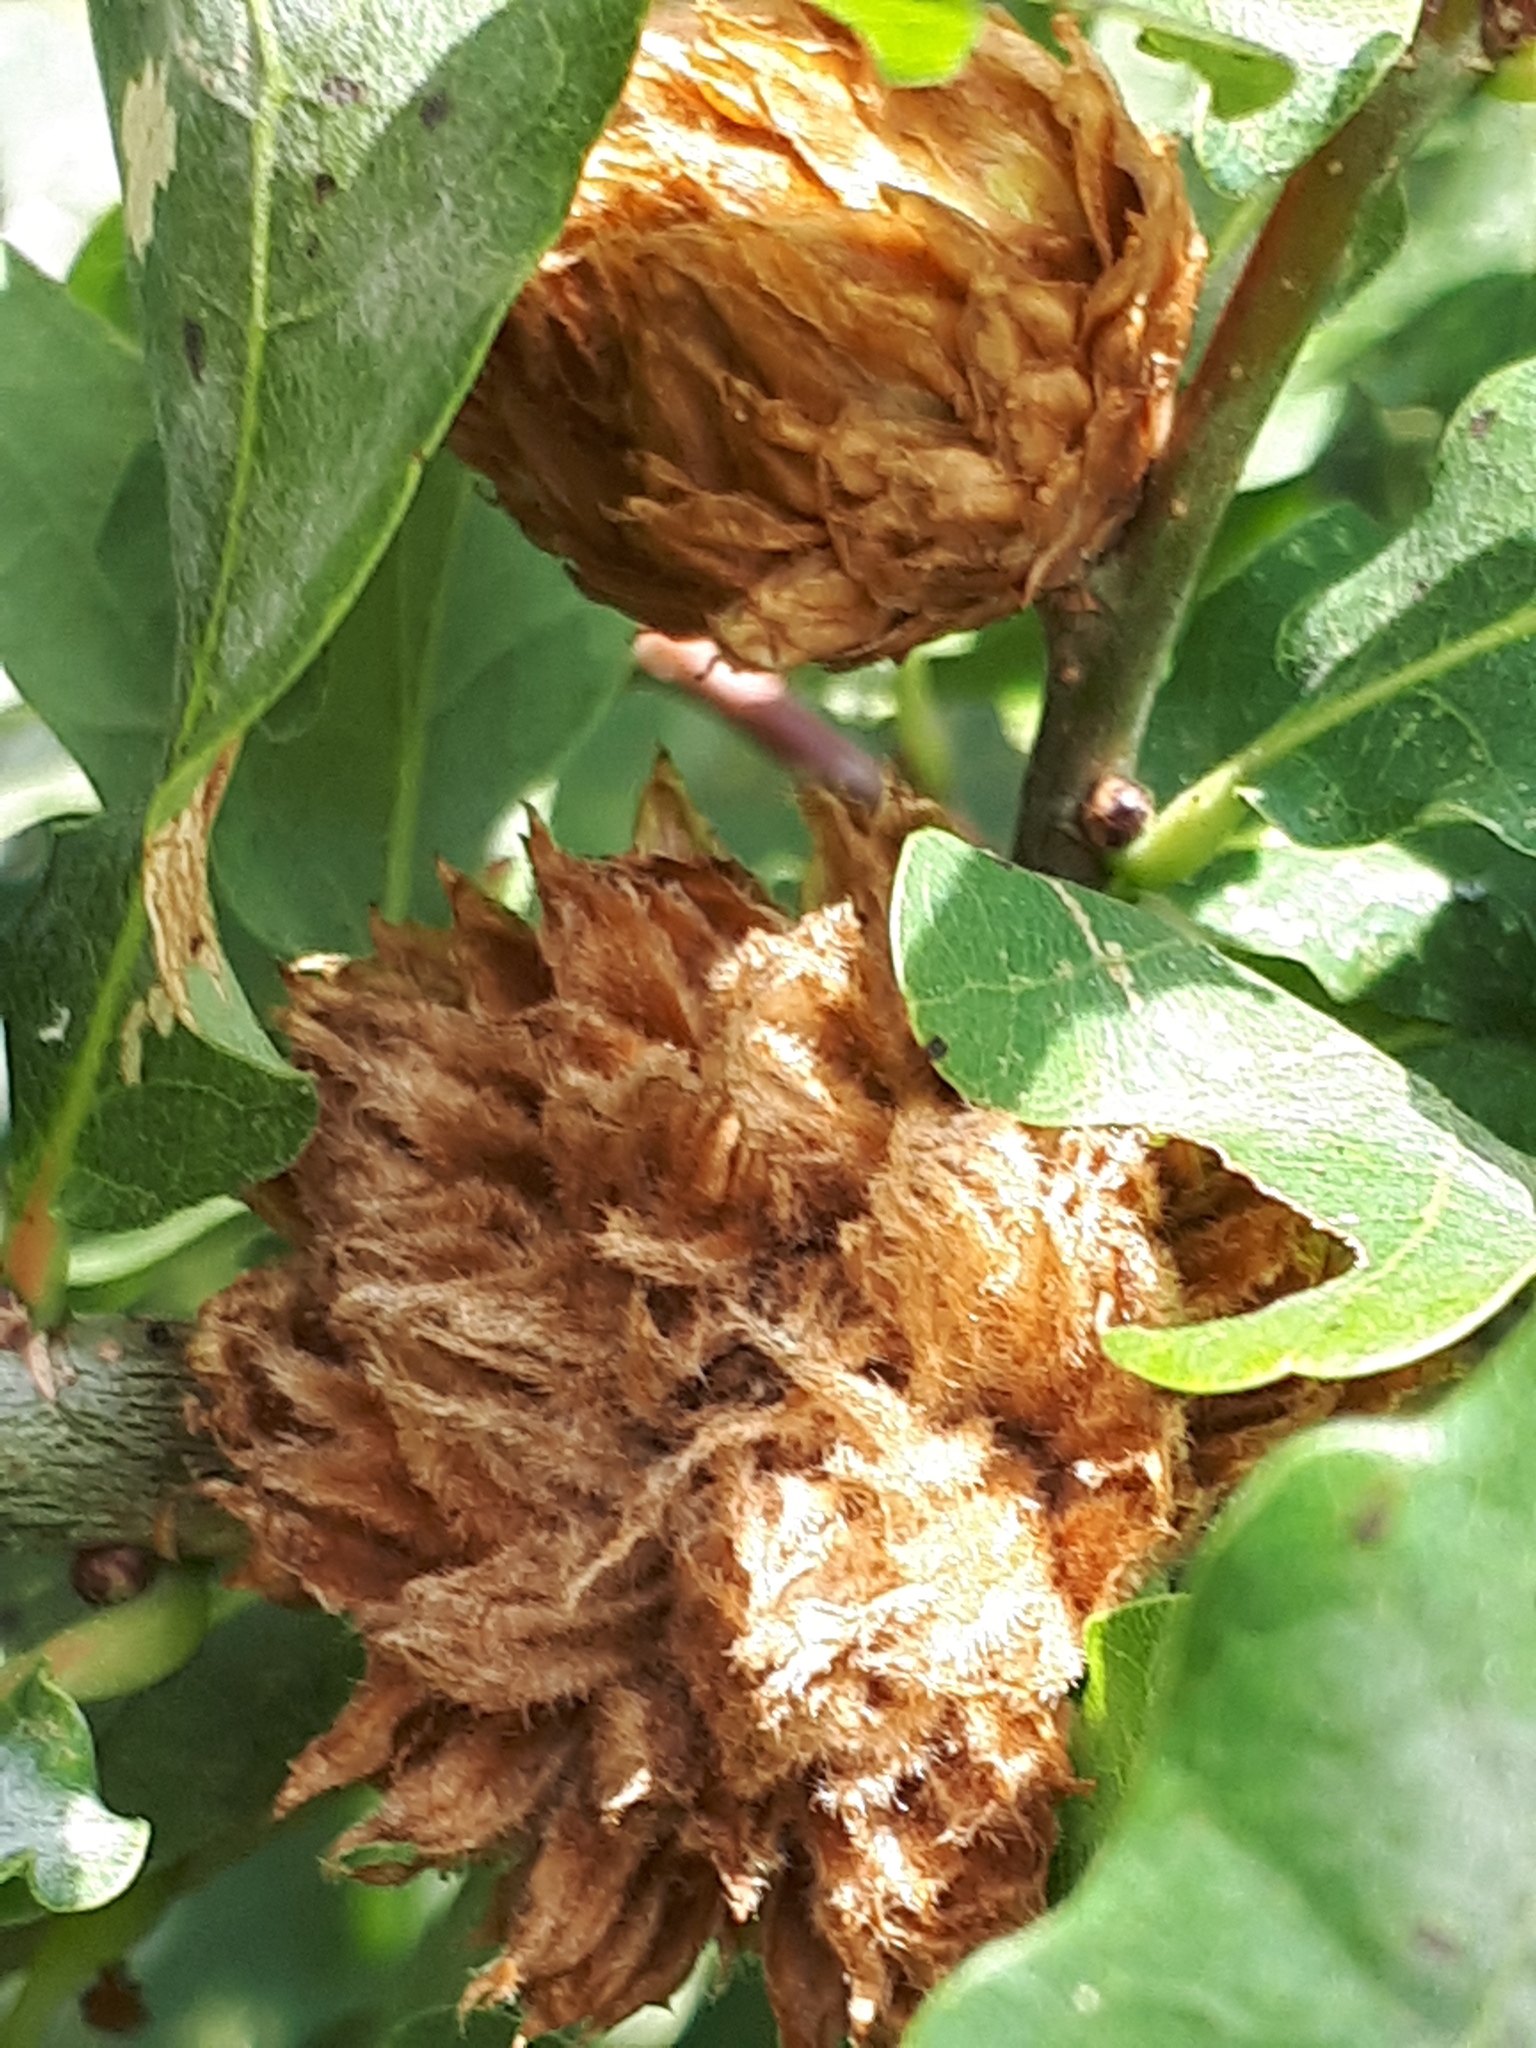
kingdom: Animalia
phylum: Arthropoda
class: Insecta
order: Hymenoptera
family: Cynipidae
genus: Andricus
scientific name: Andricus foecundatrix
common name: Artichoke gall
